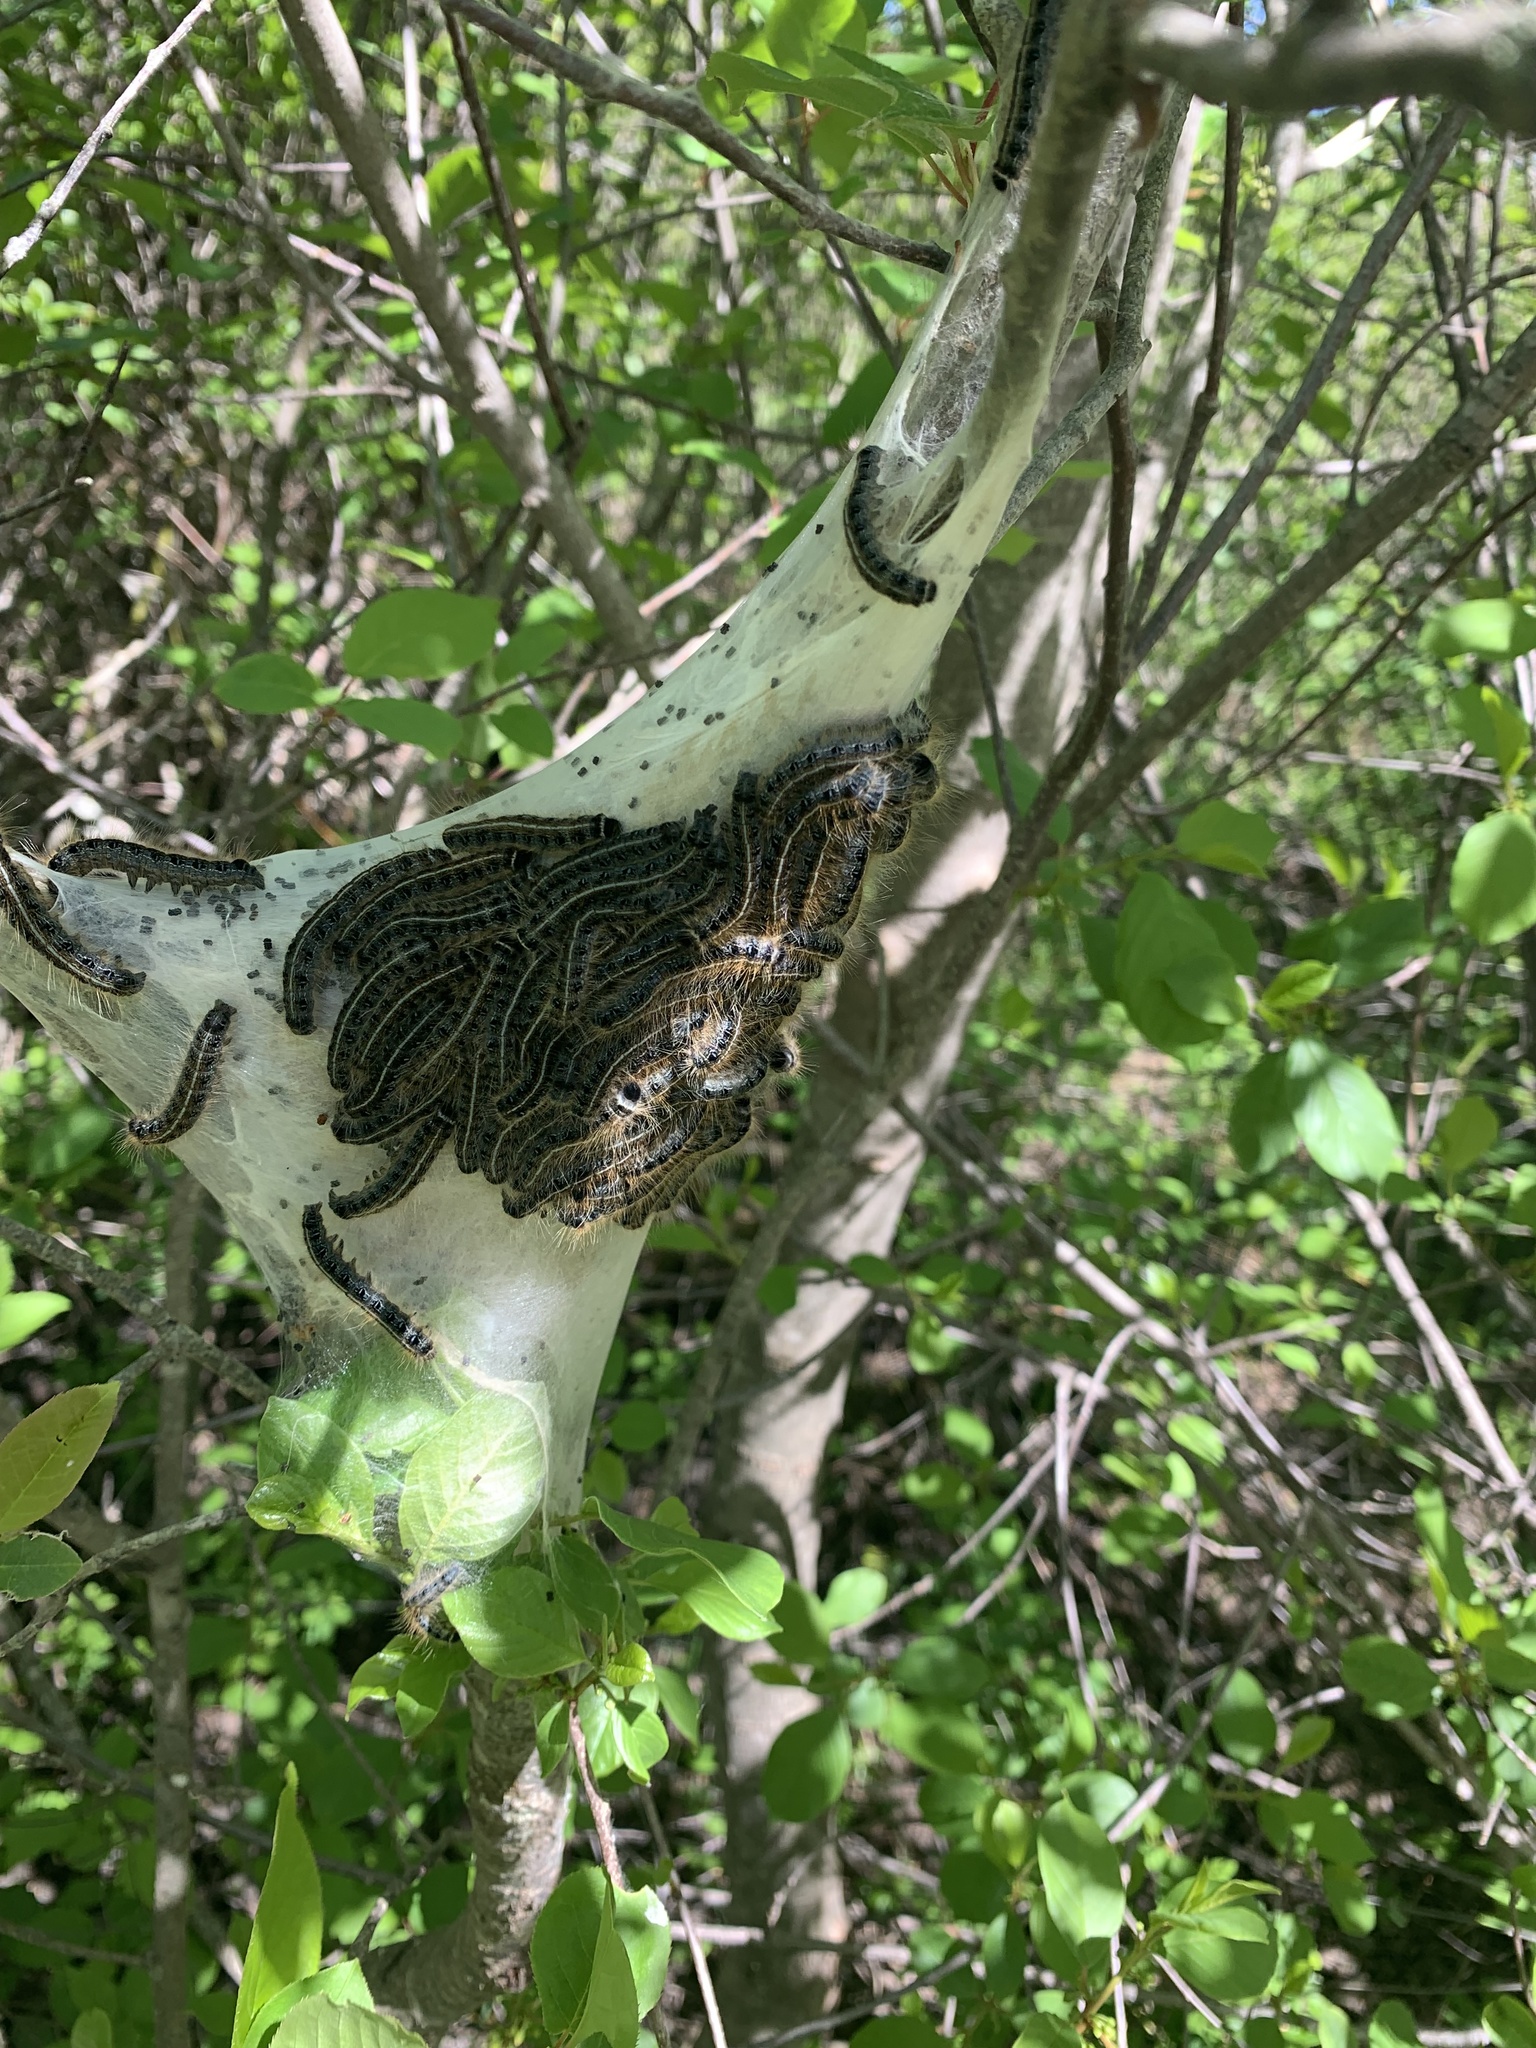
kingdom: Animalia
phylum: Arthropoda
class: Insecta
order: Lepidoptera
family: Lasiocampidae
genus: Malacosoma
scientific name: Malacosoma americana
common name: Eastern tent caterpillar moth
